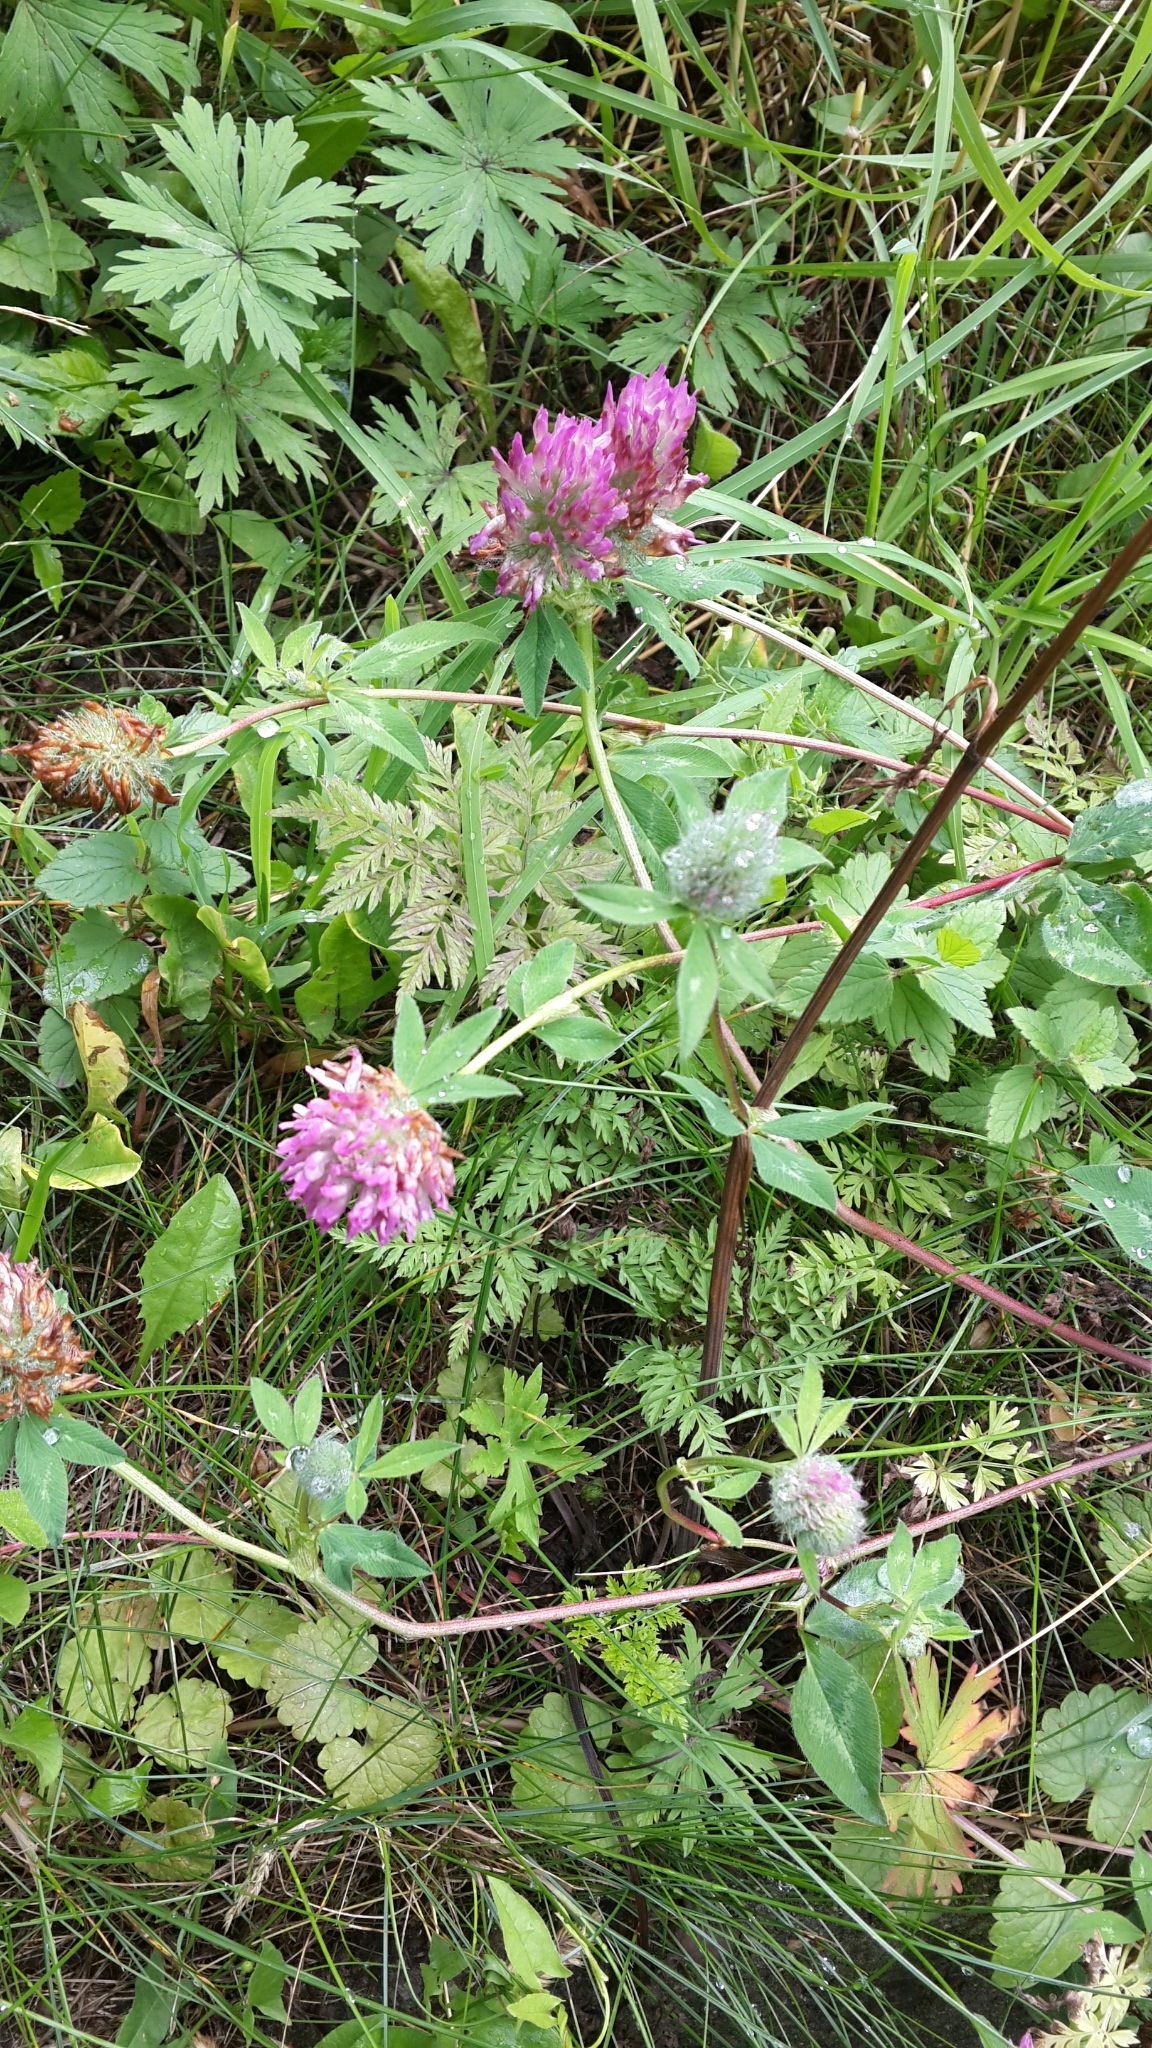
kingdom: Plantae
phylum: Tracheophyta
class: Magnoliopsida
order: Fabales
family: Fabaceae
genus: Trifolium
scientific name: Trifolium pratense
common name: Red clover
